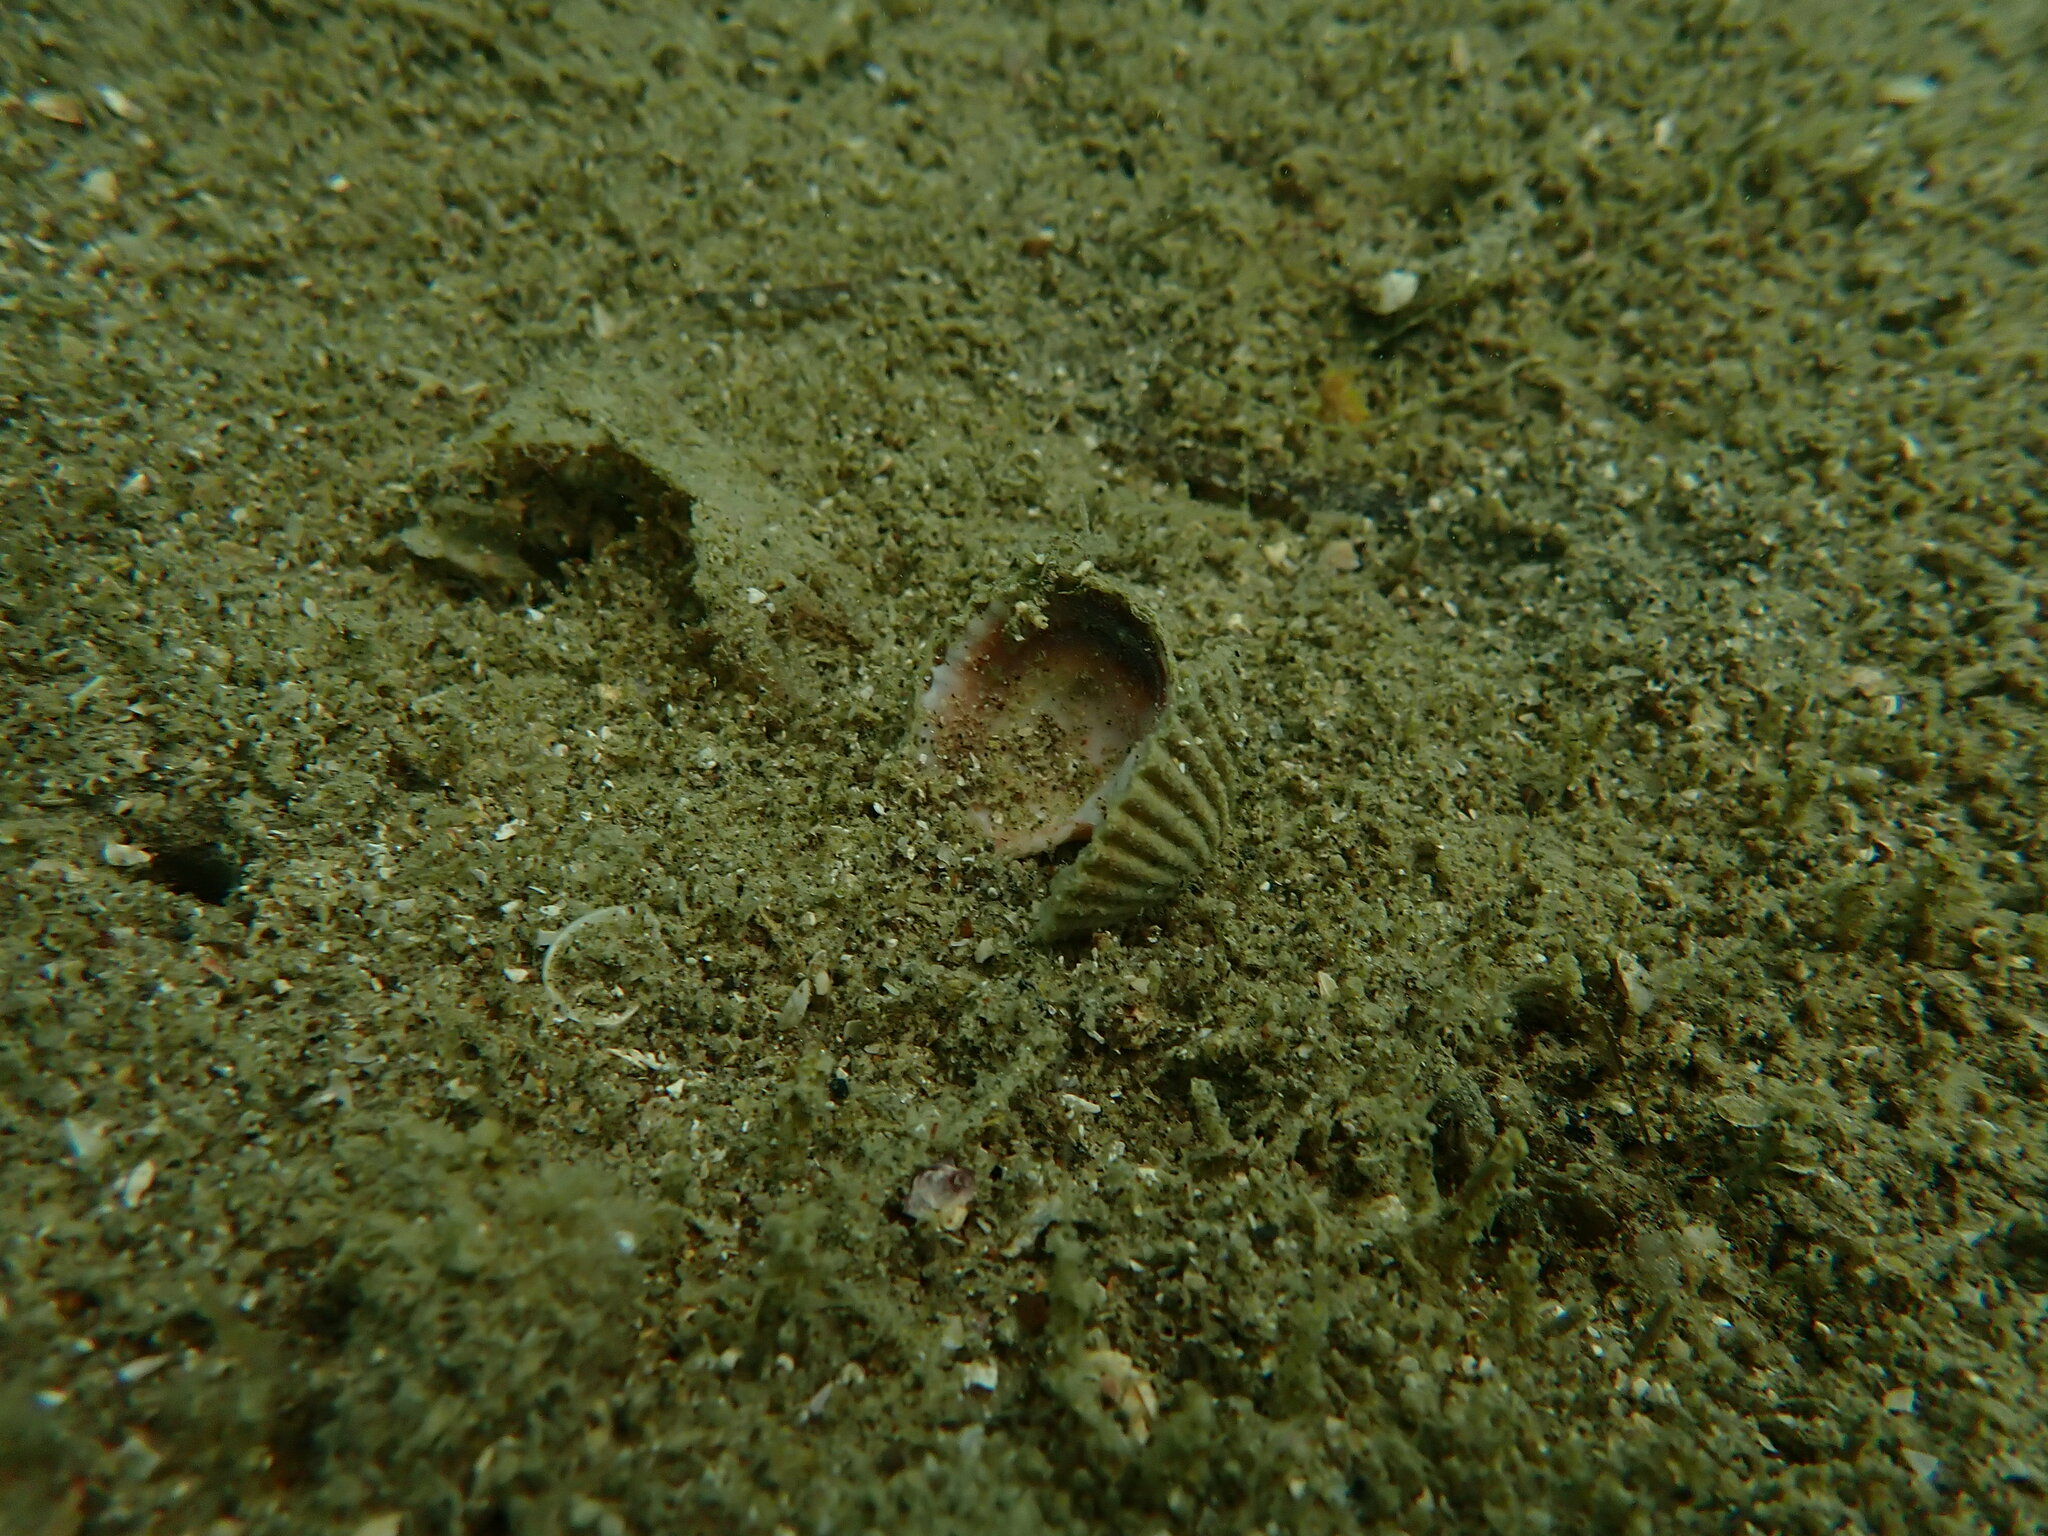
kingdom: Animalia
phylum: Mollusca
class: Bivalvia
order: Carditida
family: Carditidae
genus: Purpurocardia
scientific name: Purpurocardia purpurata
